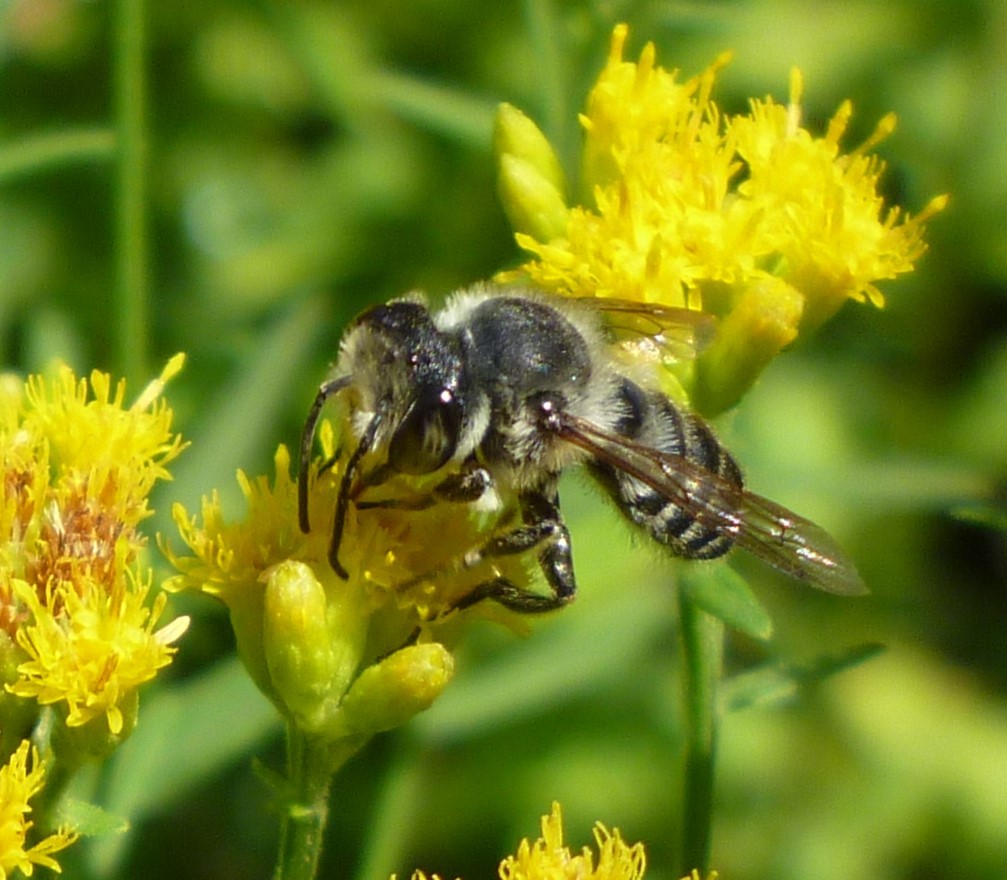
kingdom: Animalia
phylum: Arthropoda
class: Insecta
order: Hymenoptera
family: Megachilidae
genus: Megachile
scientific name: Megachile
